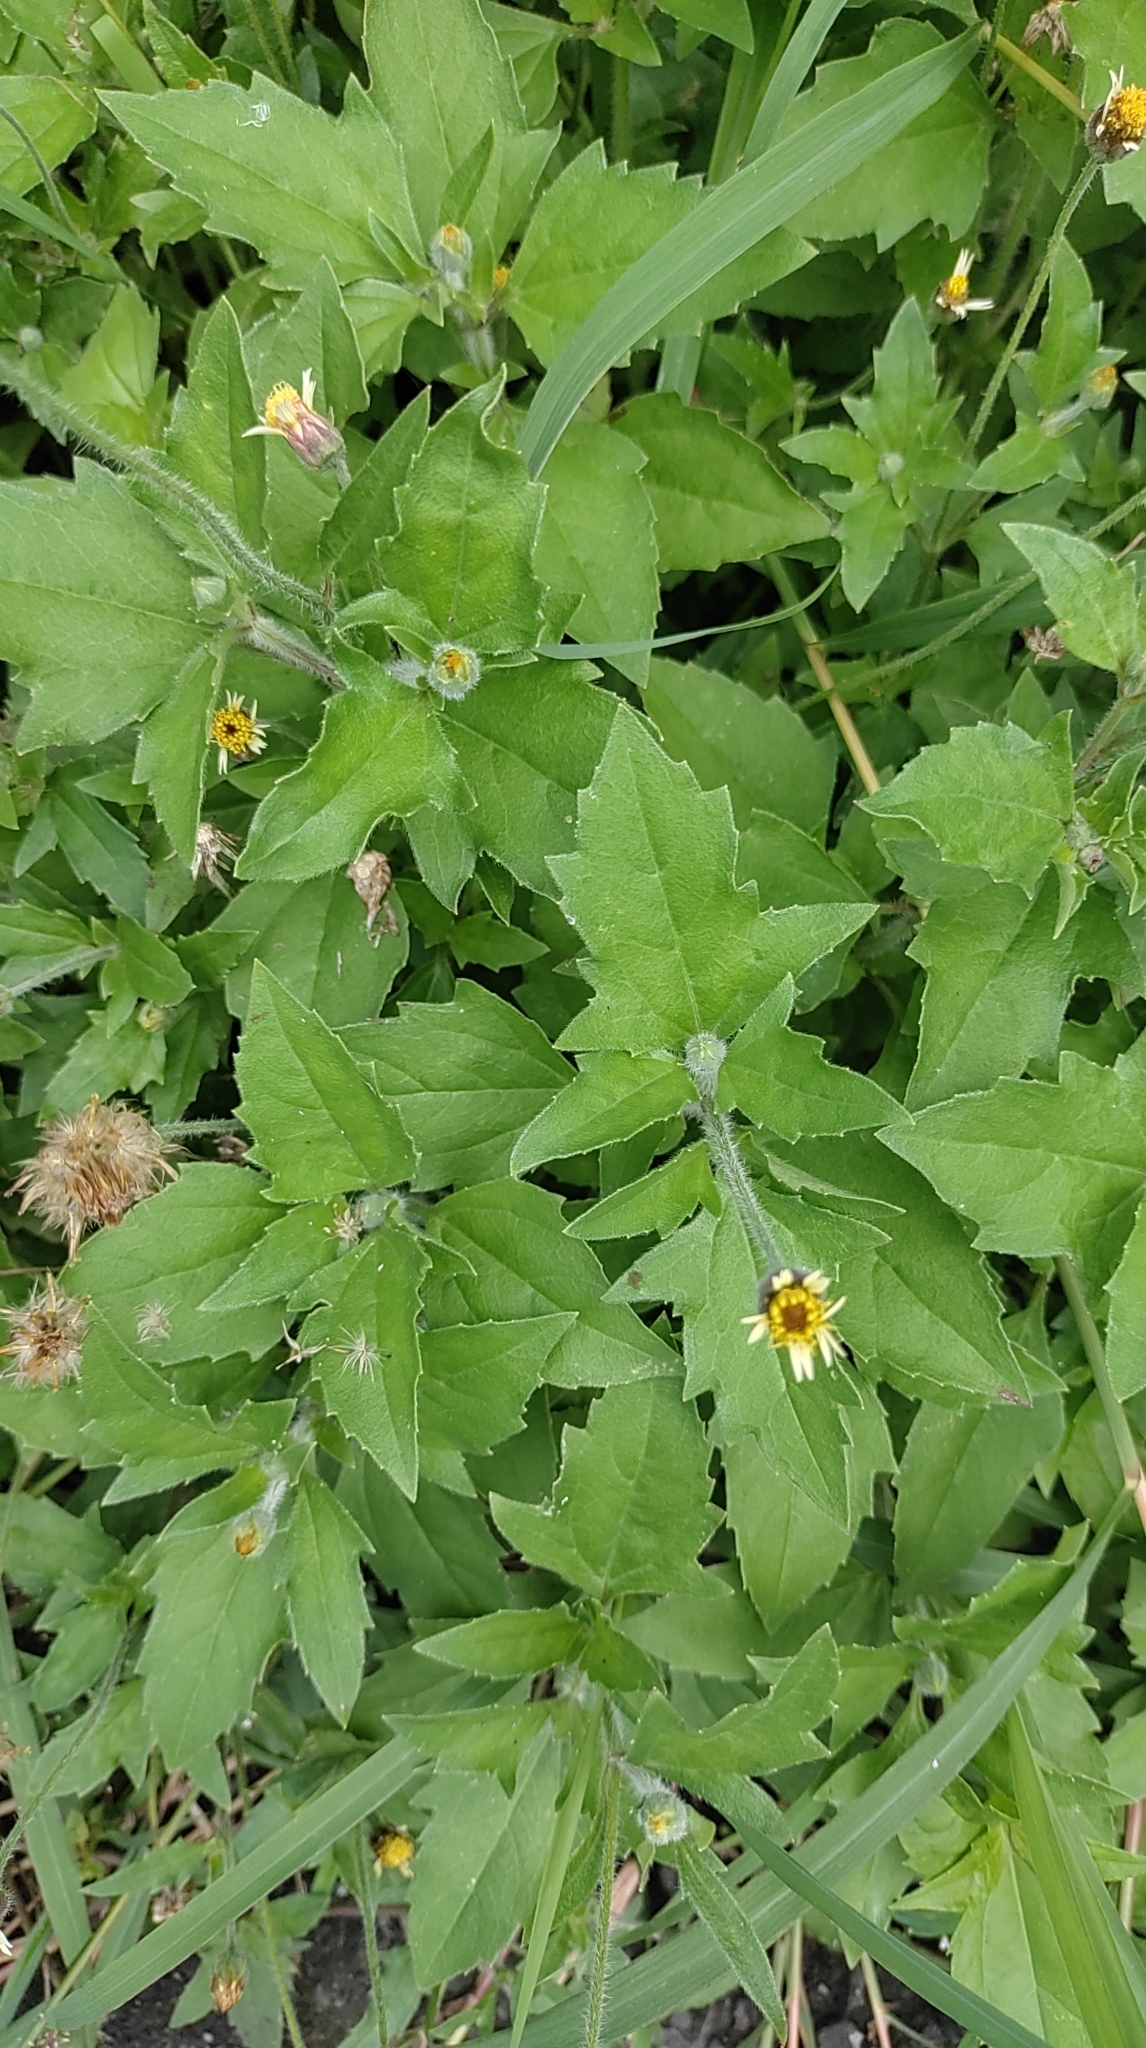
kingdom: Plantae
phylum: Tracheophyta
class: Magnoliopsida
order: Asterales
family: Asteraceae
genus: Tridax
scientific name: Tridax procumbens
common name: Coatbuttons
